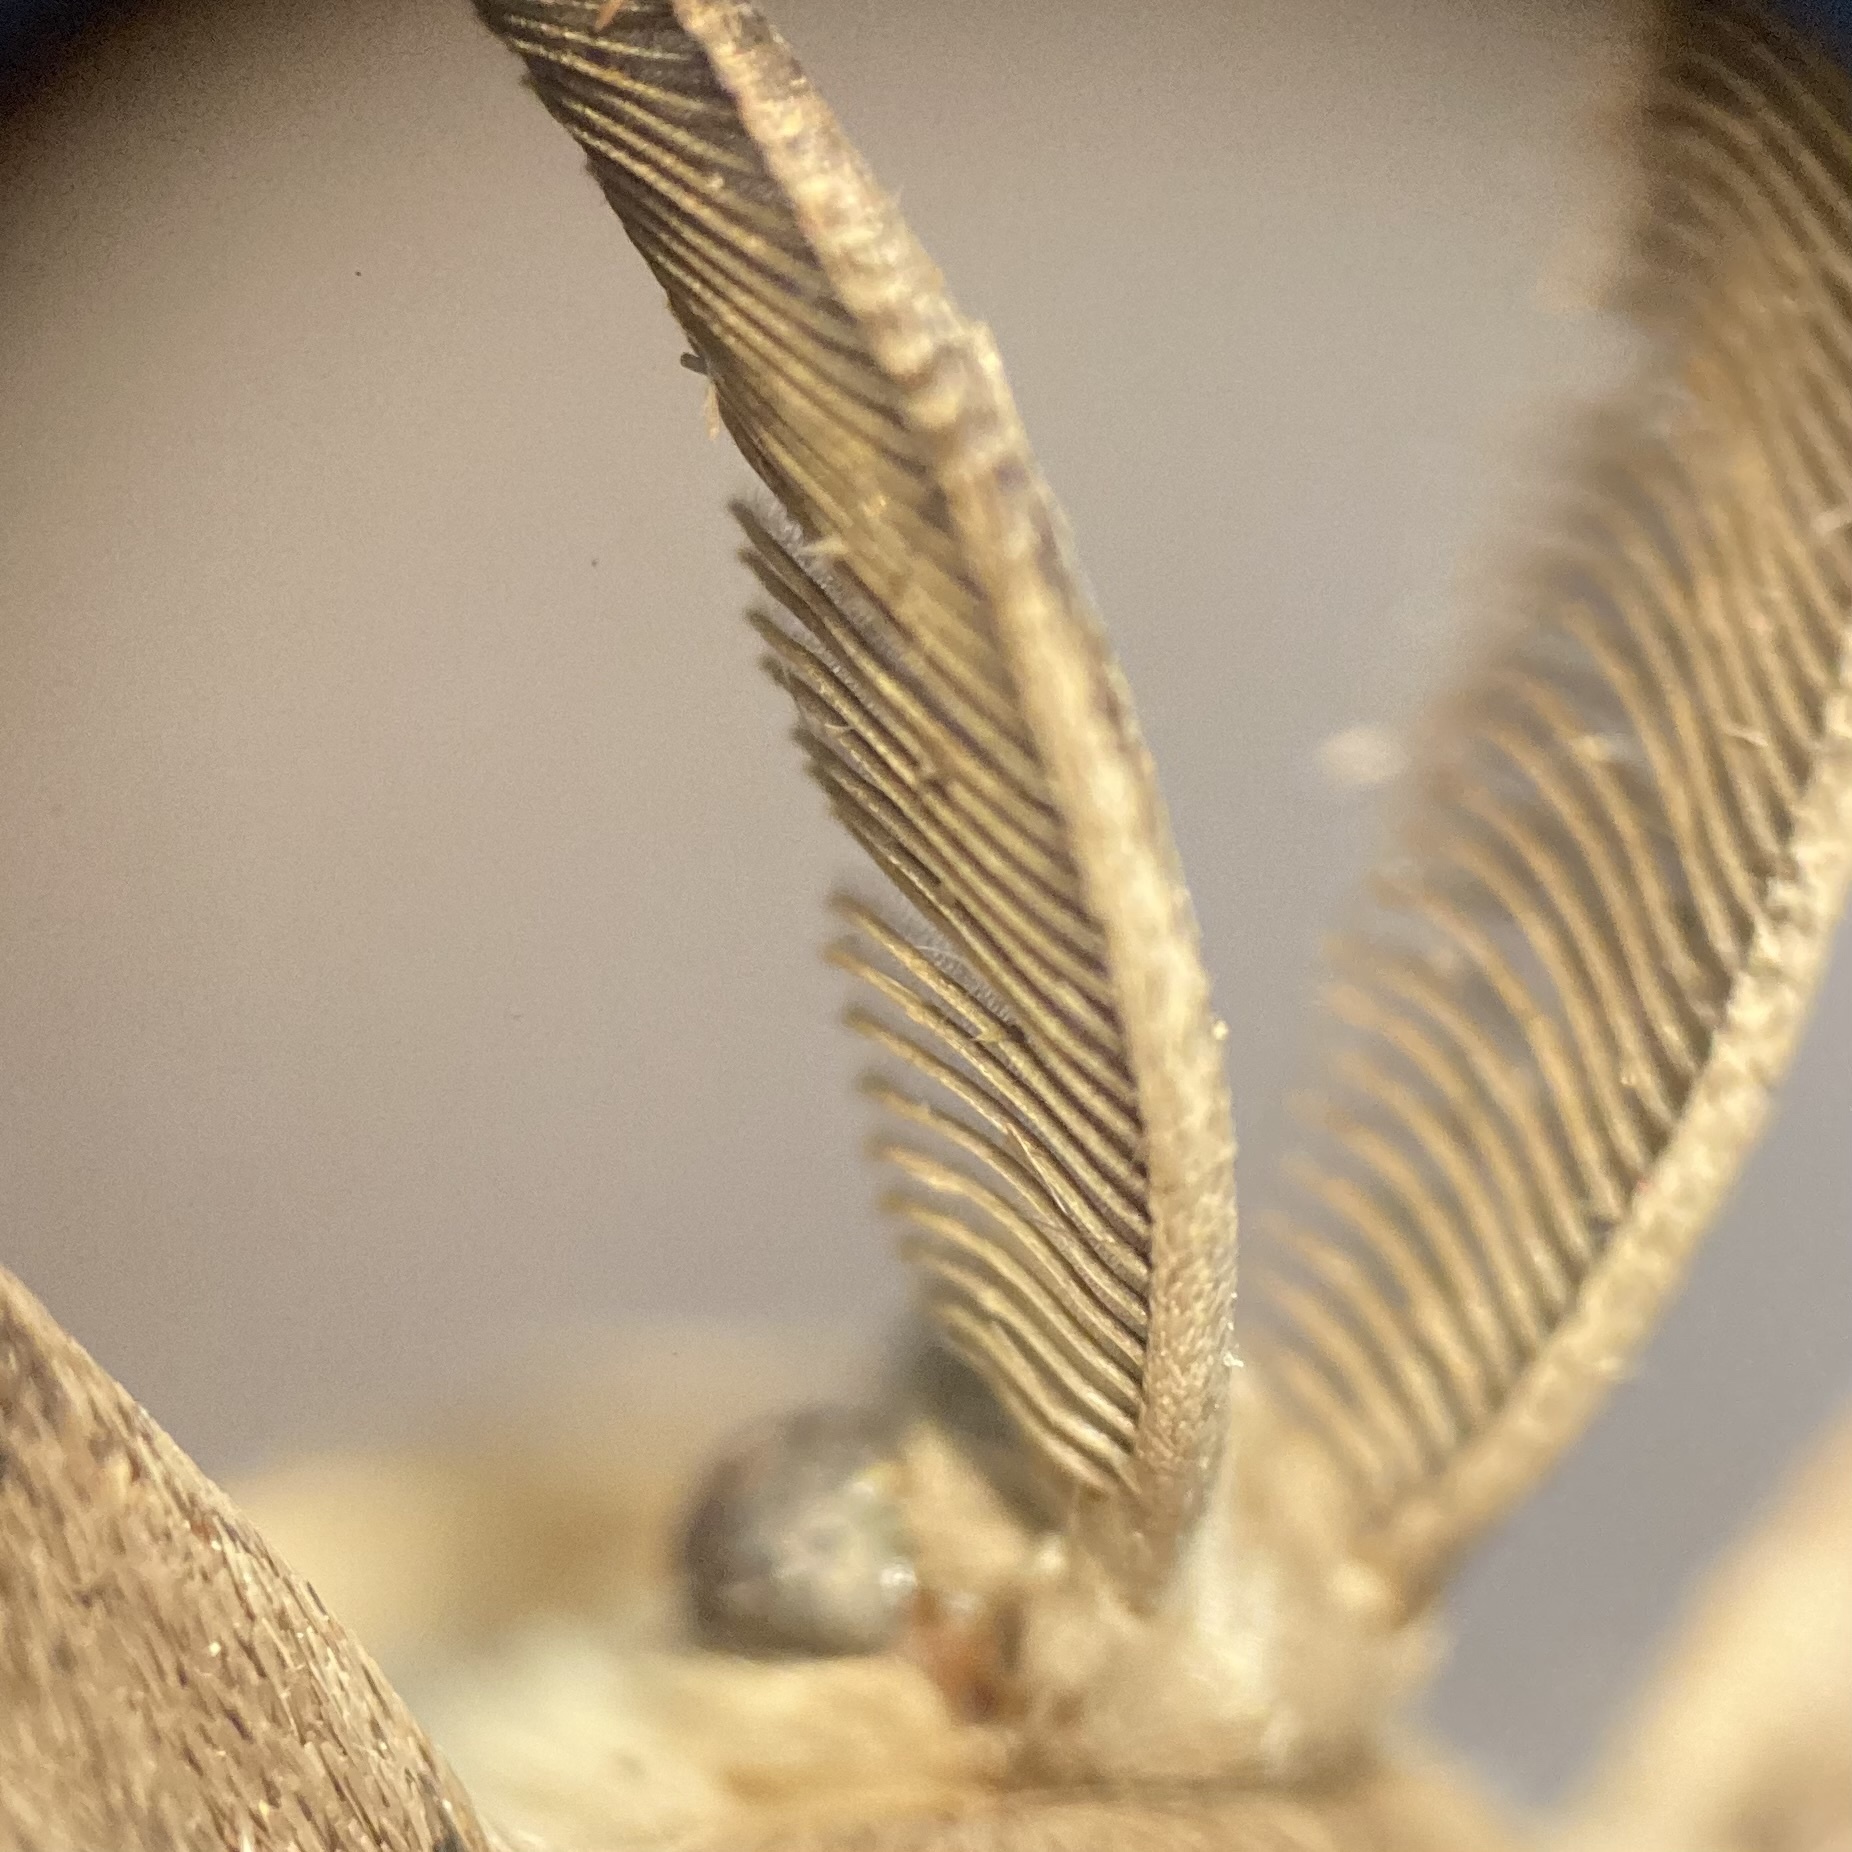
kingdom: Animalia
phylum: Arthropoda
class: Insecta
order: Lepidoptera
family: Erebidae
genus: Lymantria
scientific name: Lymantria dispar
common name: Gypsy moth
